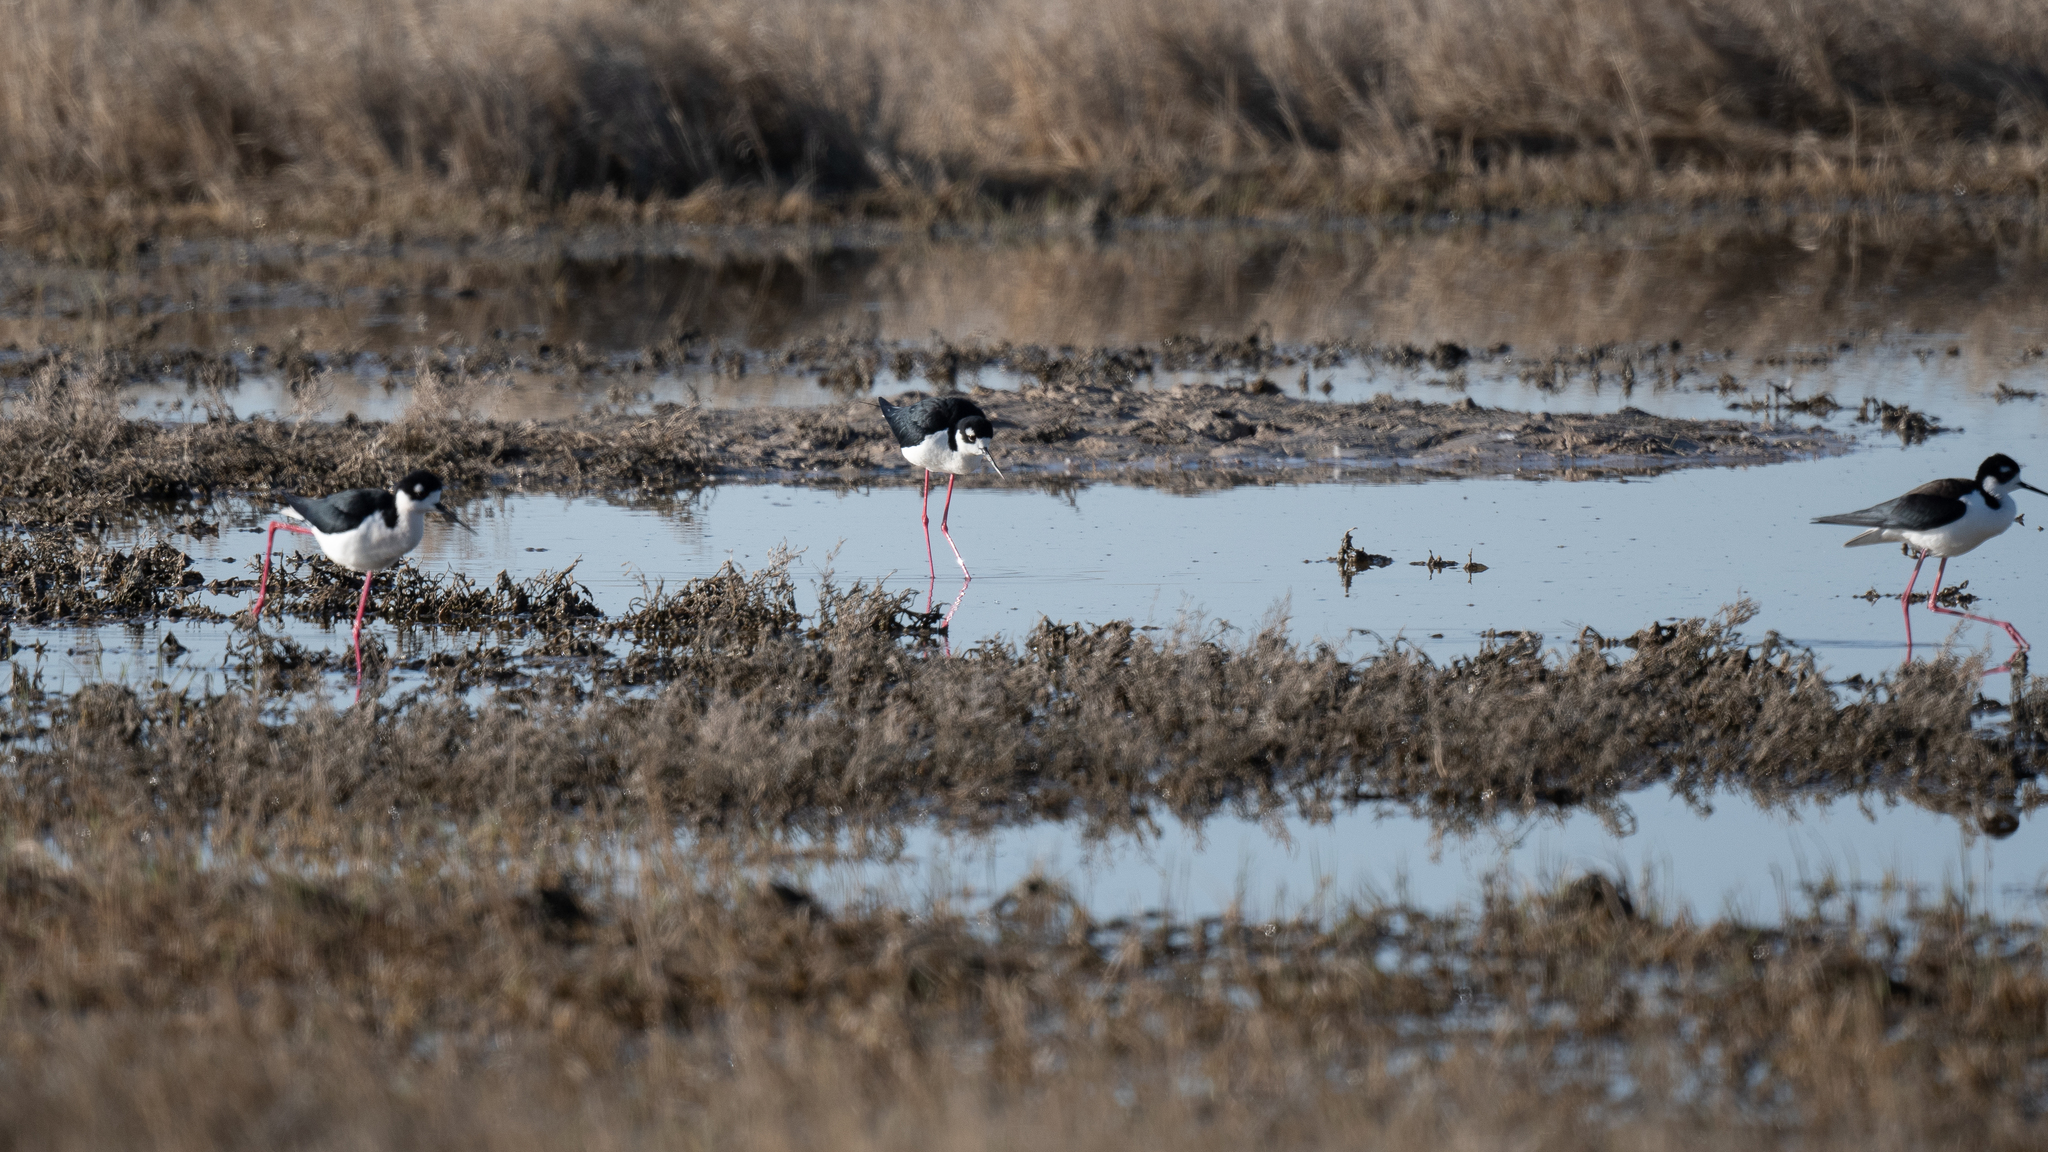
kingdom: Animalia
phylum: Chordata
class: Aves
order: Charadriiformes
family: Recurvirostridae
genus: Himantopus
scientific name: Himantopus mexicanus
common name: Black-necked stilt
